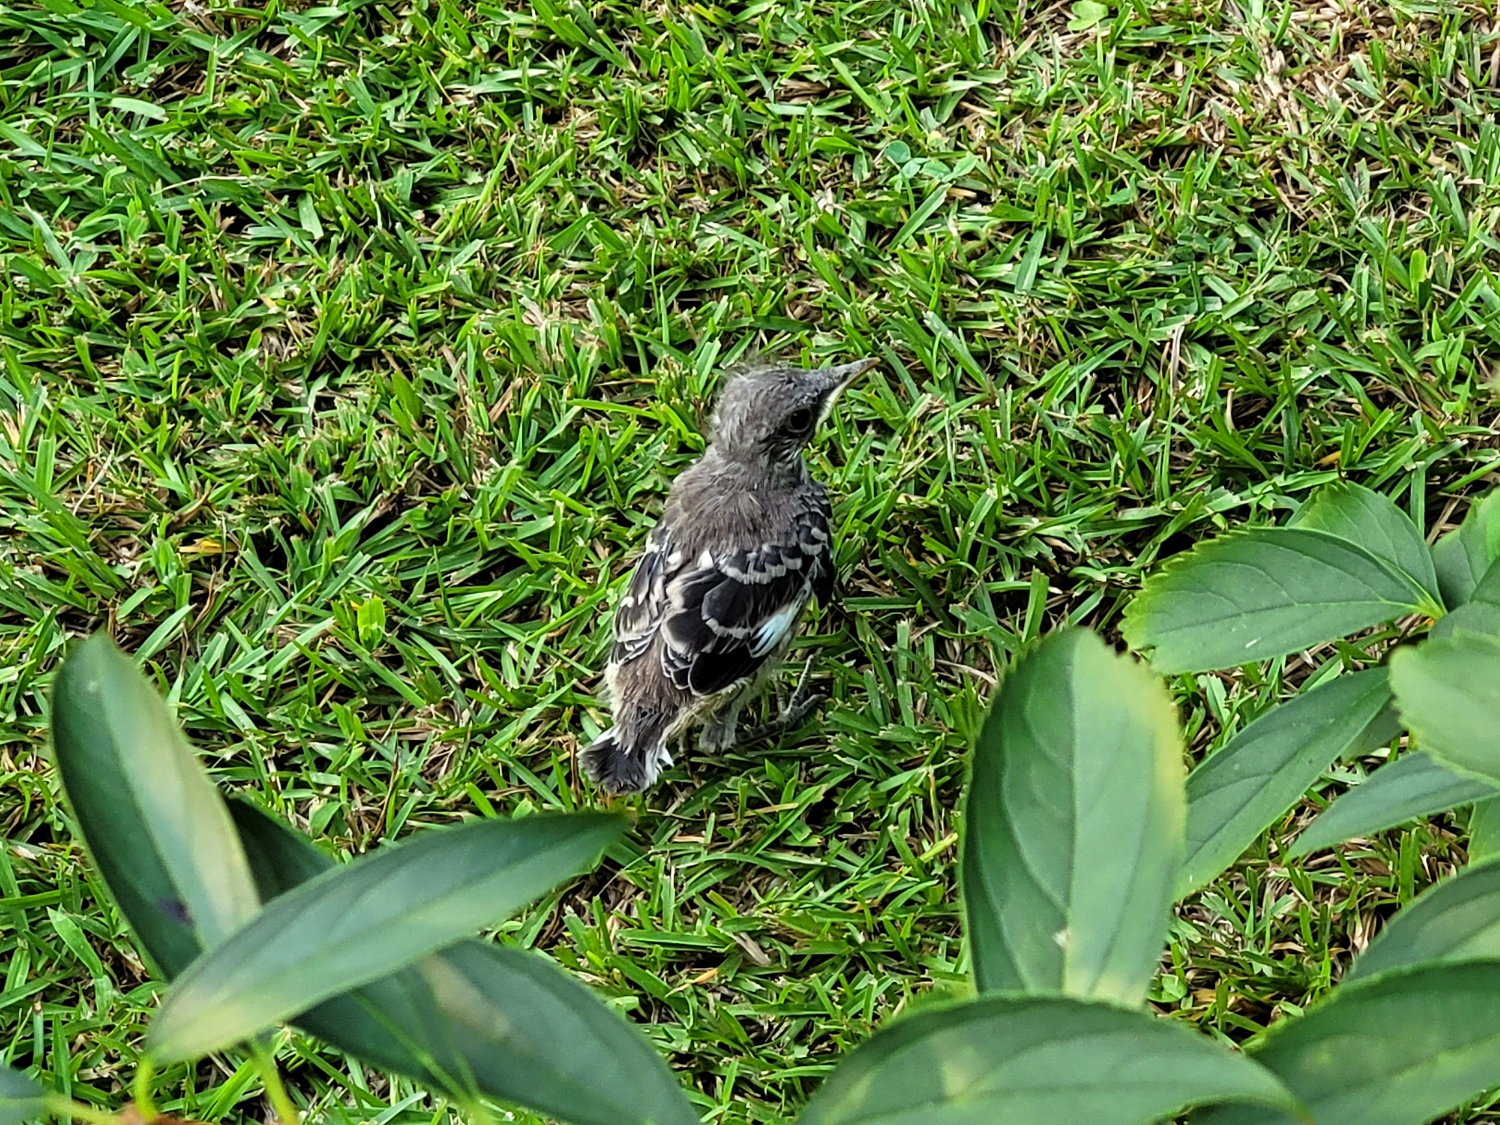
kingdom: Animalia
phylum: Chordata
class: Aves
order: Passeriformes
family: Mimidae
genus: Mimus
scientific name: Mimus polyglottos
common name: Northern mockingbird
